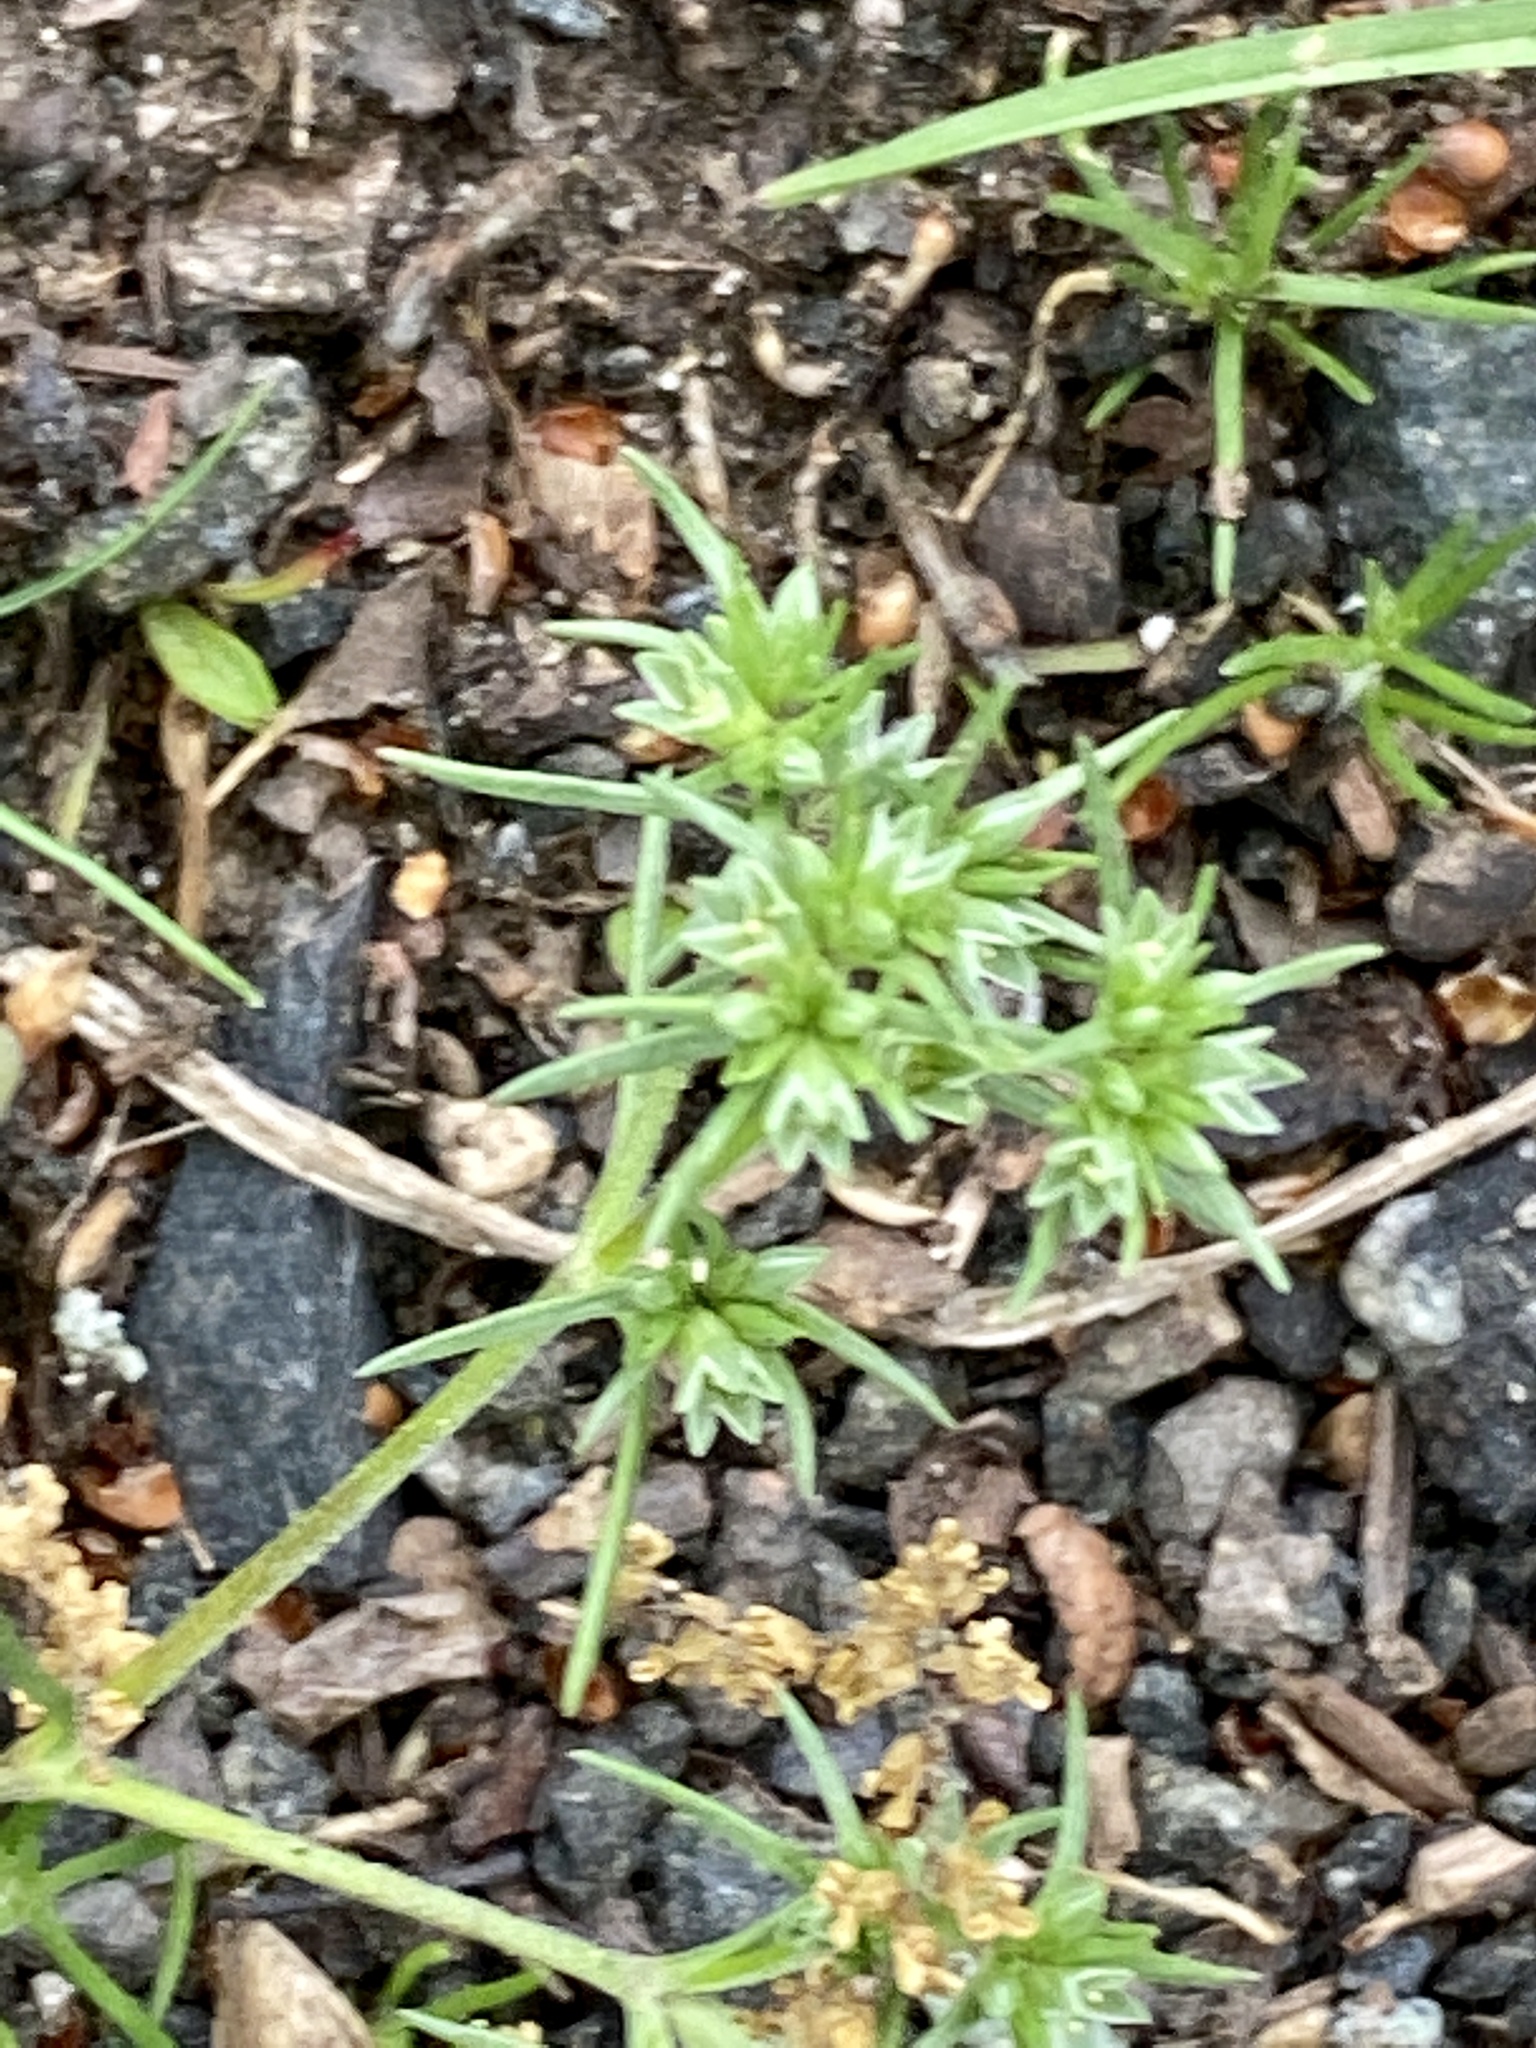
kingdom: Plantae
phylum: Tracheophyta
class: Magnoliopsida
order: Caryophyllales
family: Caryophyllaceae
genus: Scleranthus
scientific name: Scleranthus annuus
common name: Annual knawel
